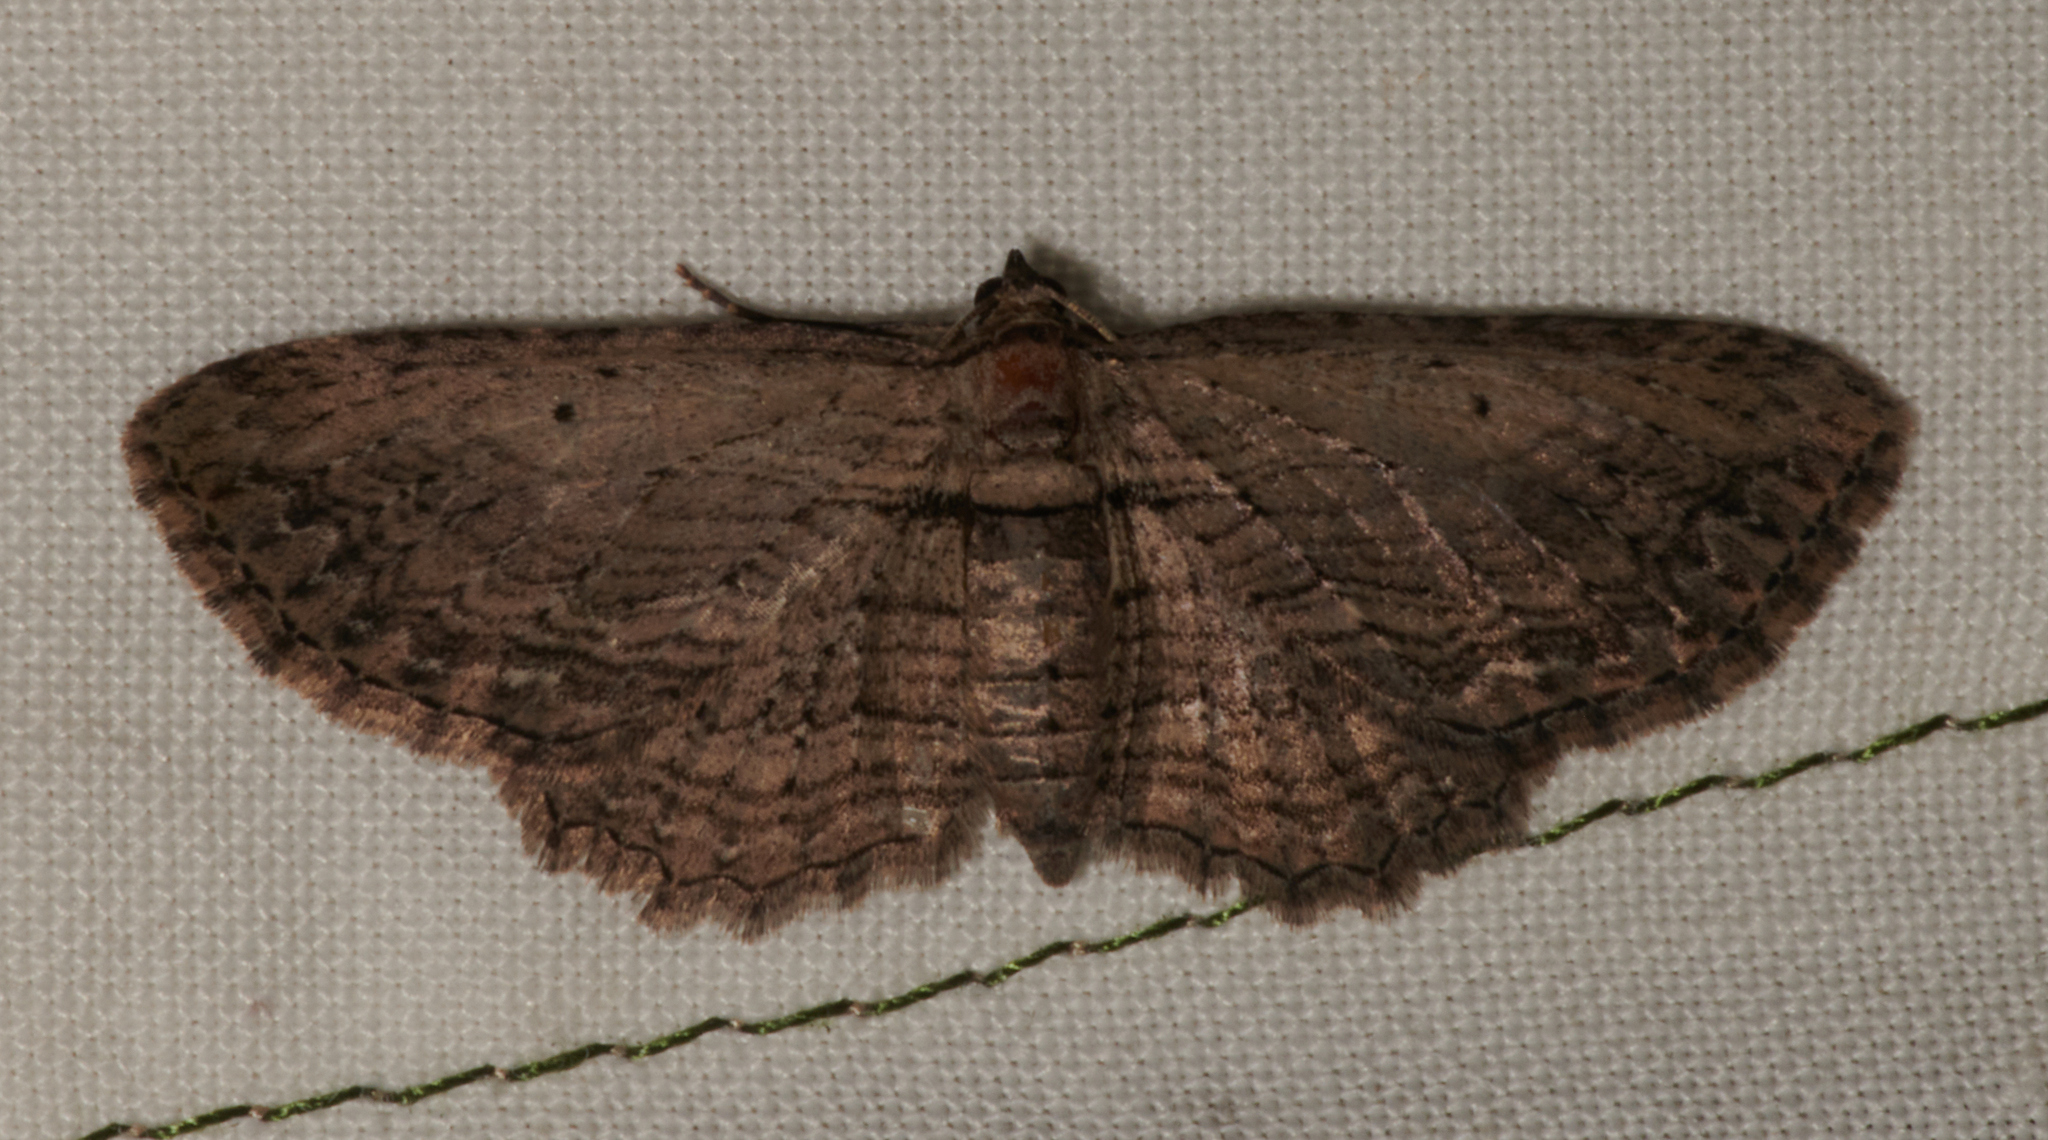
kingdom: Animalia
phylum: Arthropoda
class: Insecta
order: Lepidoptera
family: Geometridae
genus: Horisme
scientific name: Horisme intestinata
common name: Brown bark carpet
